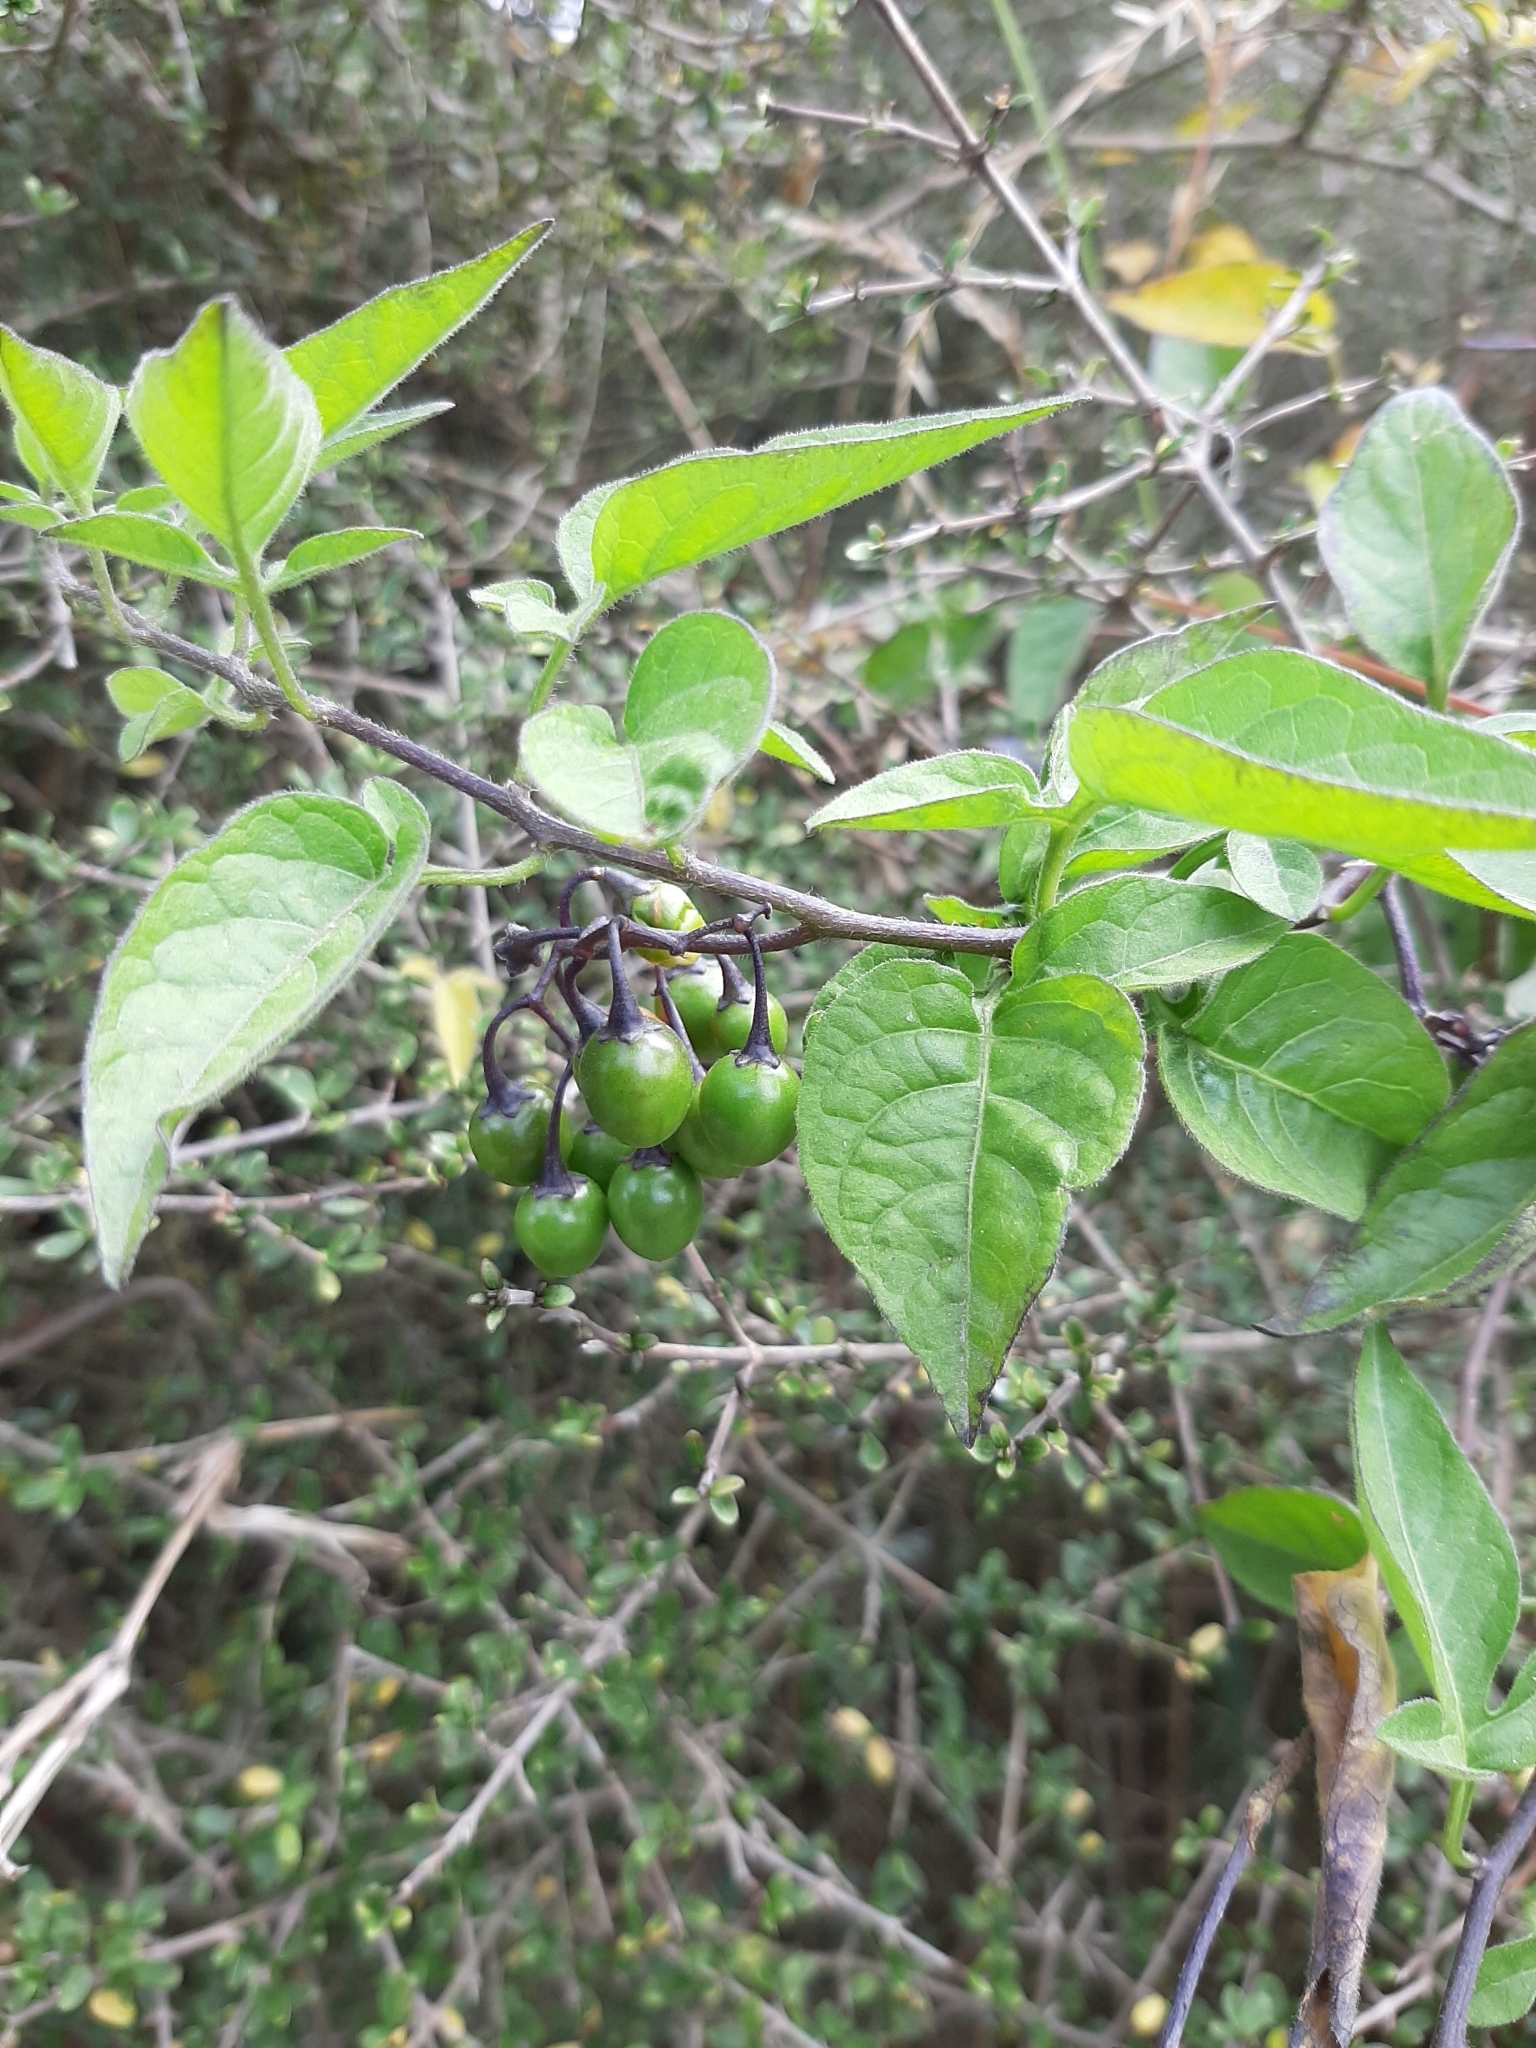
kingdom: Plantae
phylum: Tracheophyta
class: Magnoliopsida
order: Solanales
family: Solanaceae
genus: Solanum
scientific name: Solanum dulcamara
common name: Climbing nightshade
